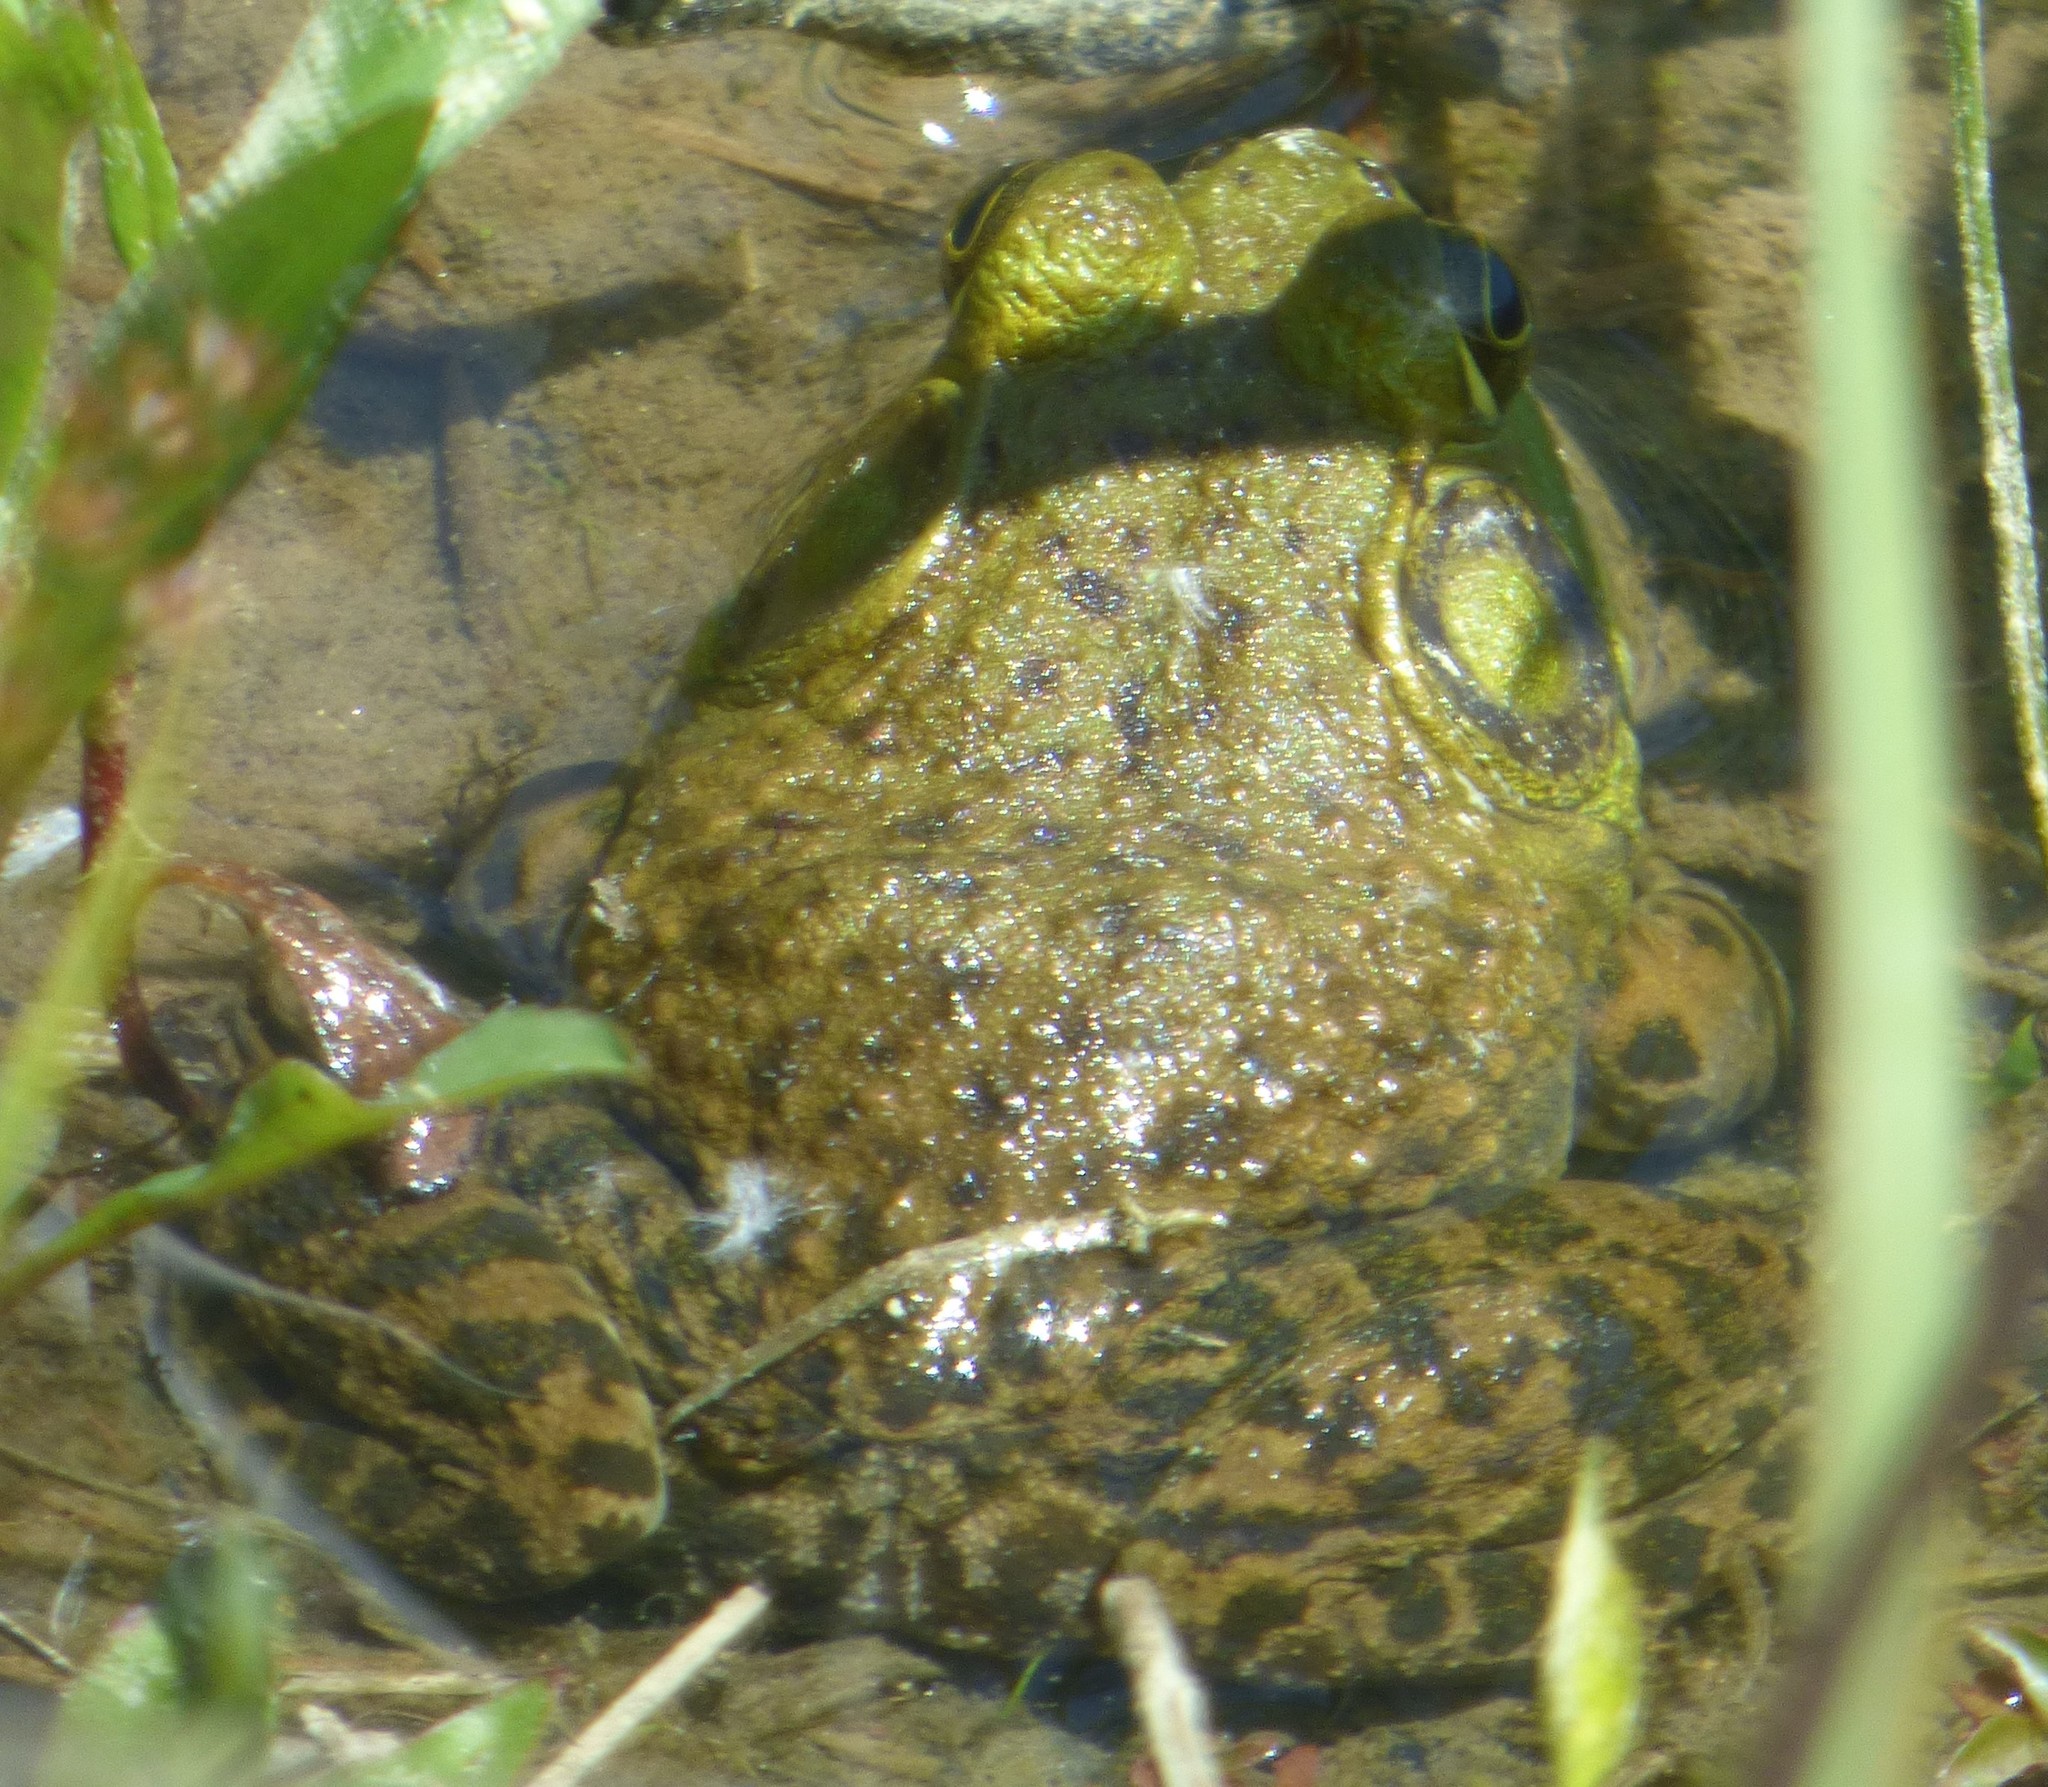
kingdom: Animalia
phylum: Chordata
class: Amphibia
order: Anura
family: Ranidae
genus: Lithobates
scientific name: Lithobates catesbeianus
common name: American bullfrog
